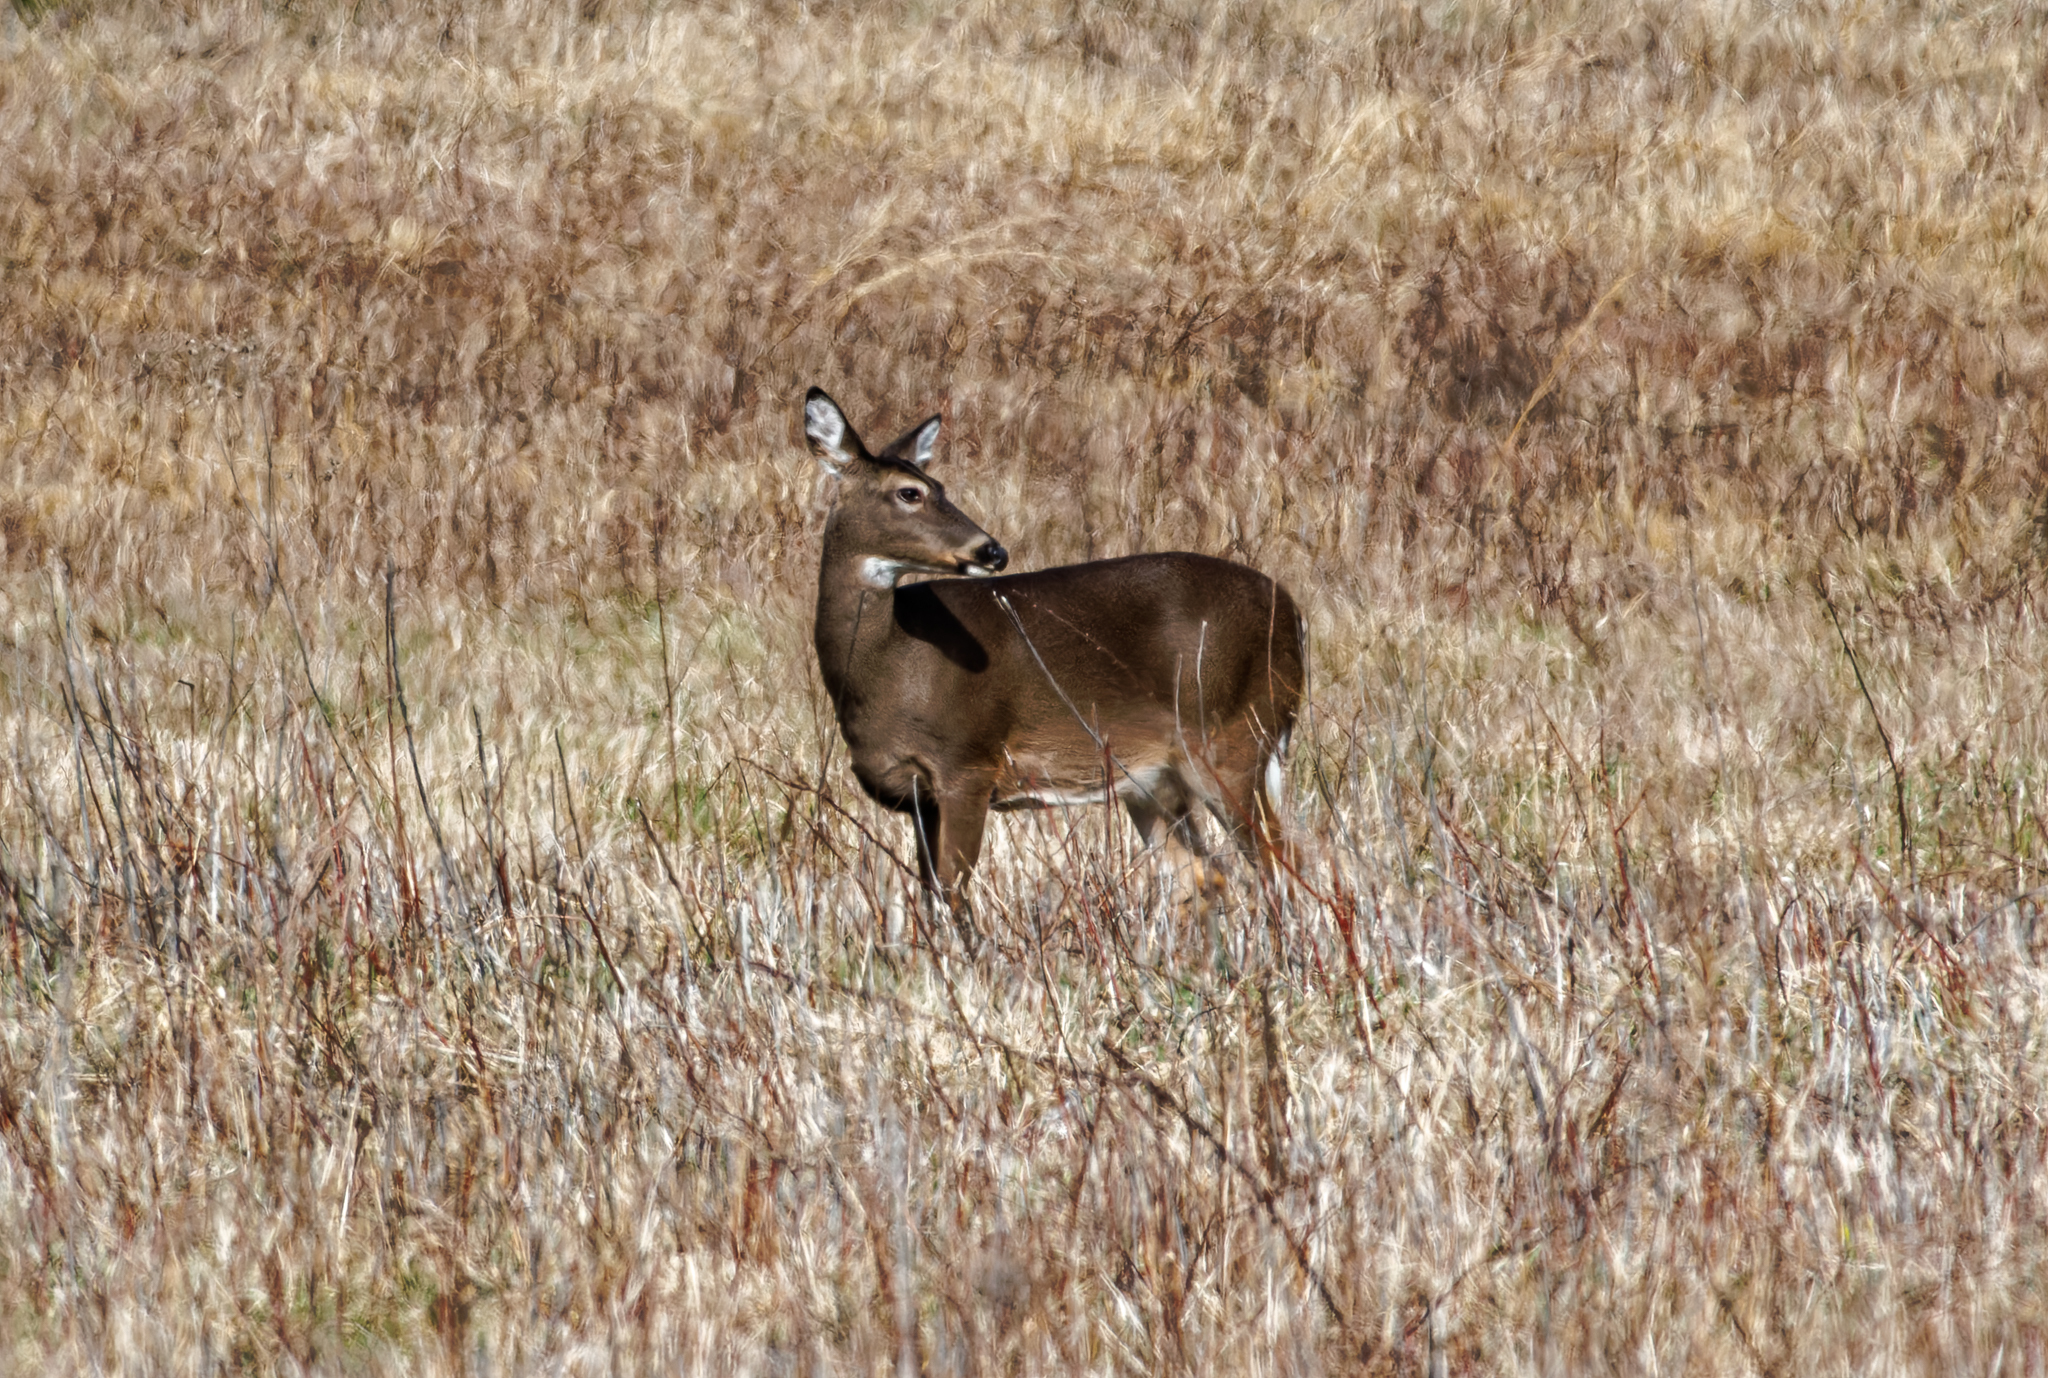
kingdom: Animalia
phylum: Chordata
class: Mammalia
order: Artiodactyla
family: Cervidae
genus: Odocoileus
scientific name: Odocoileus virginianus
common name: White-tailed deer
